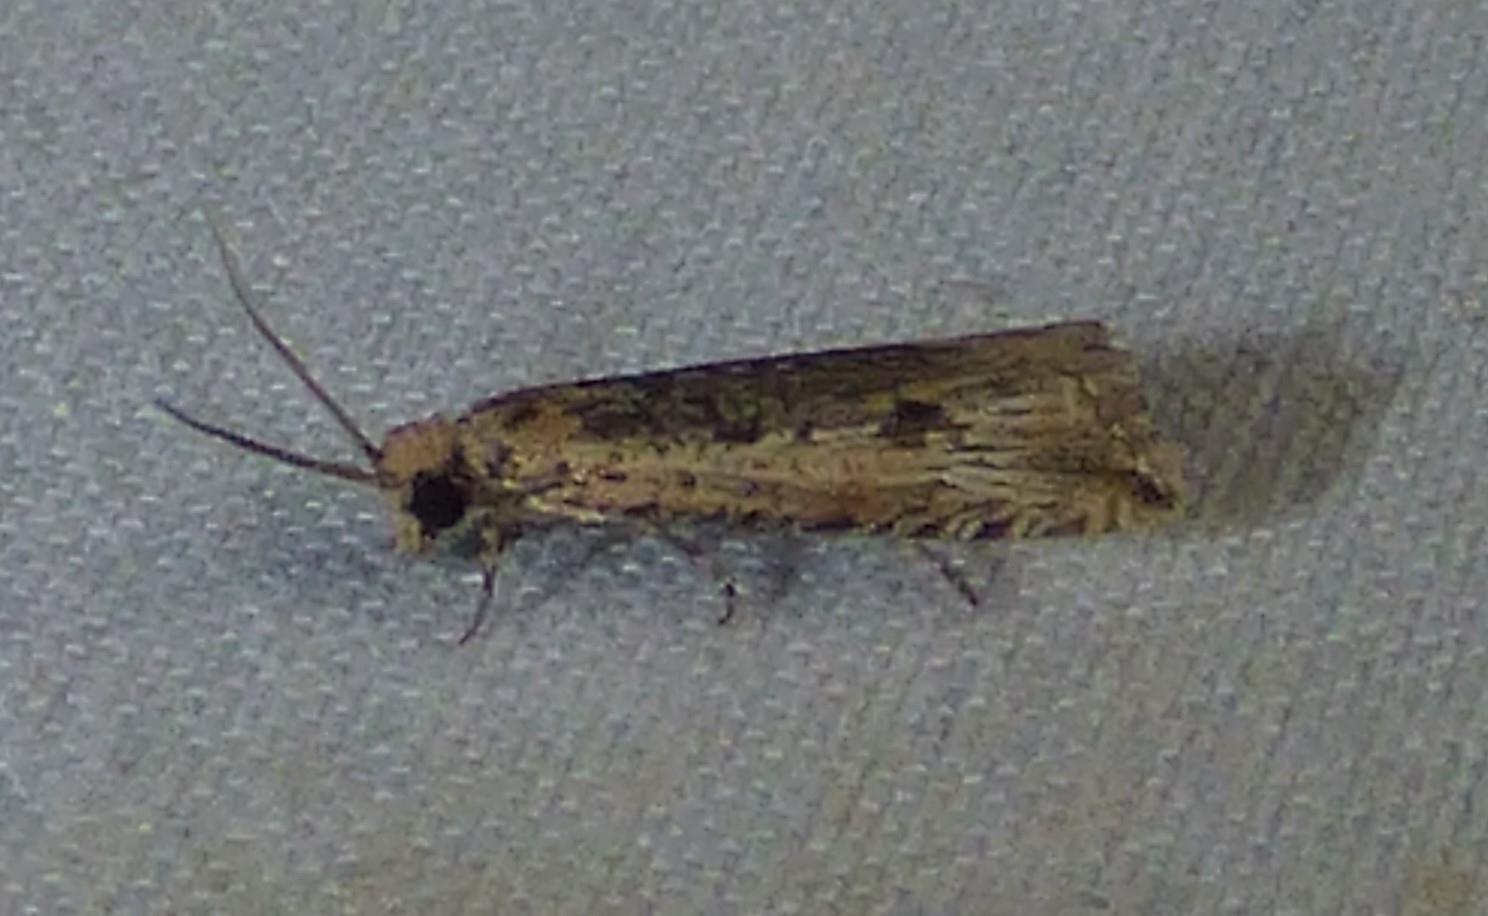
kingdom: Animalia
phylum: Arthropoda
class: Insecta
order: Lepidoptera
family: Tortricidae
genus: Bactra
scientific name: Bactra verutana
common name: Javelin moth
